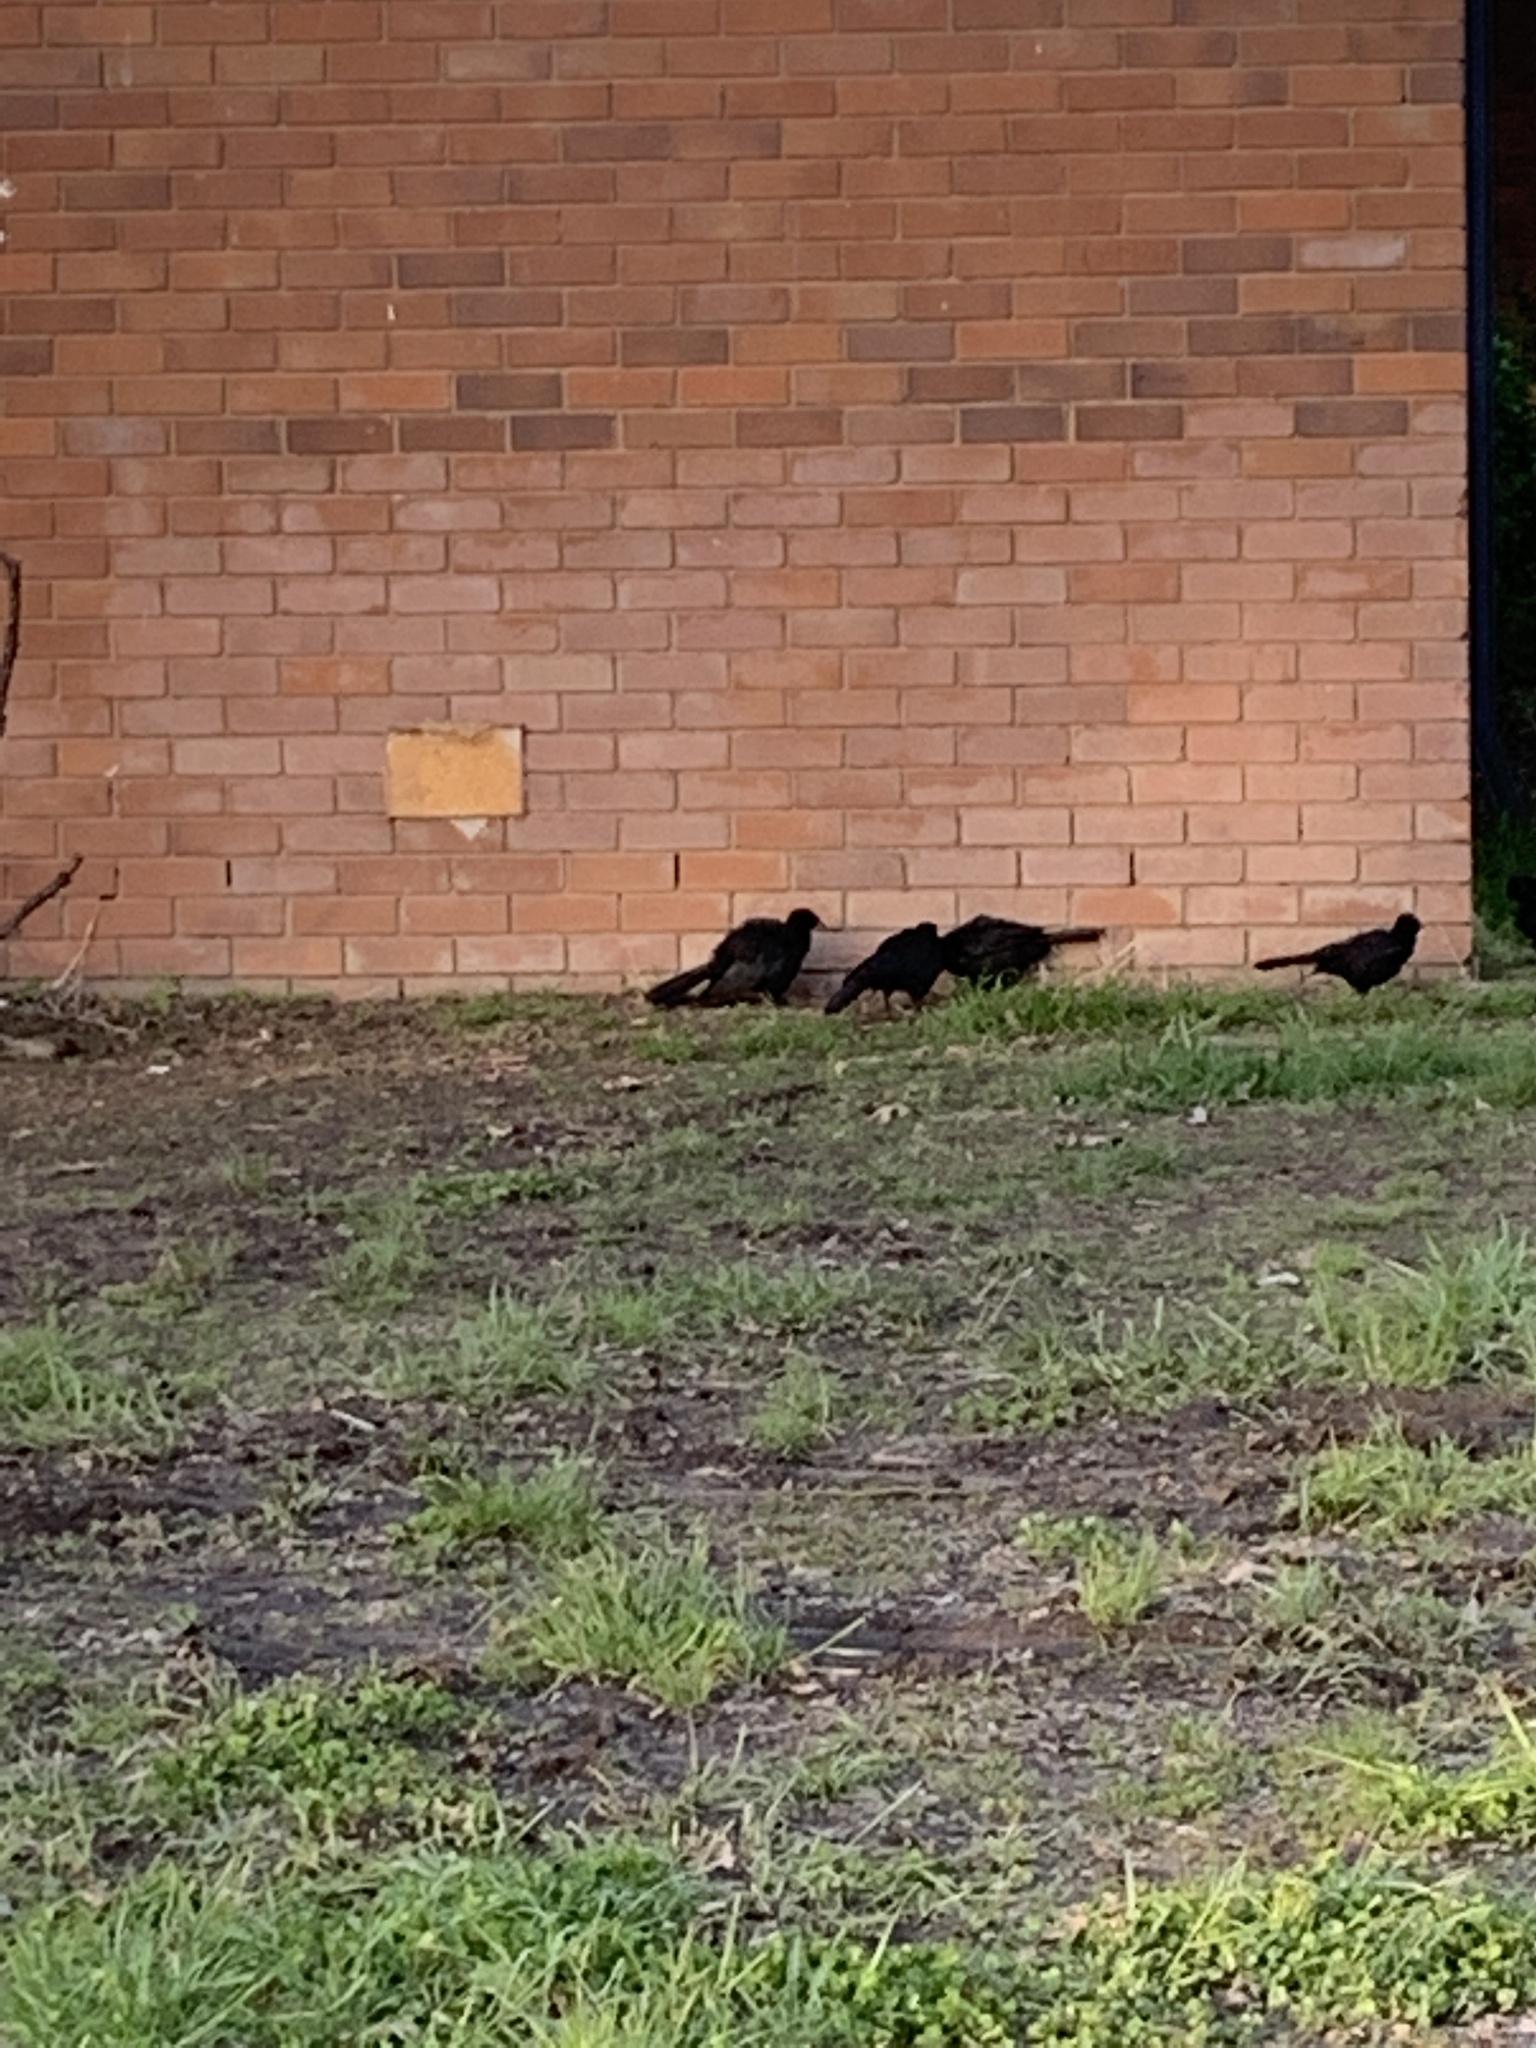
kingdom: Animalia
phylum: Chordata
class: Aves
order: Passeriformes
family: Corcoracidae
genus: Corcorax
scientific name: Corcorax melanoramphos
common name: White-winged chough
